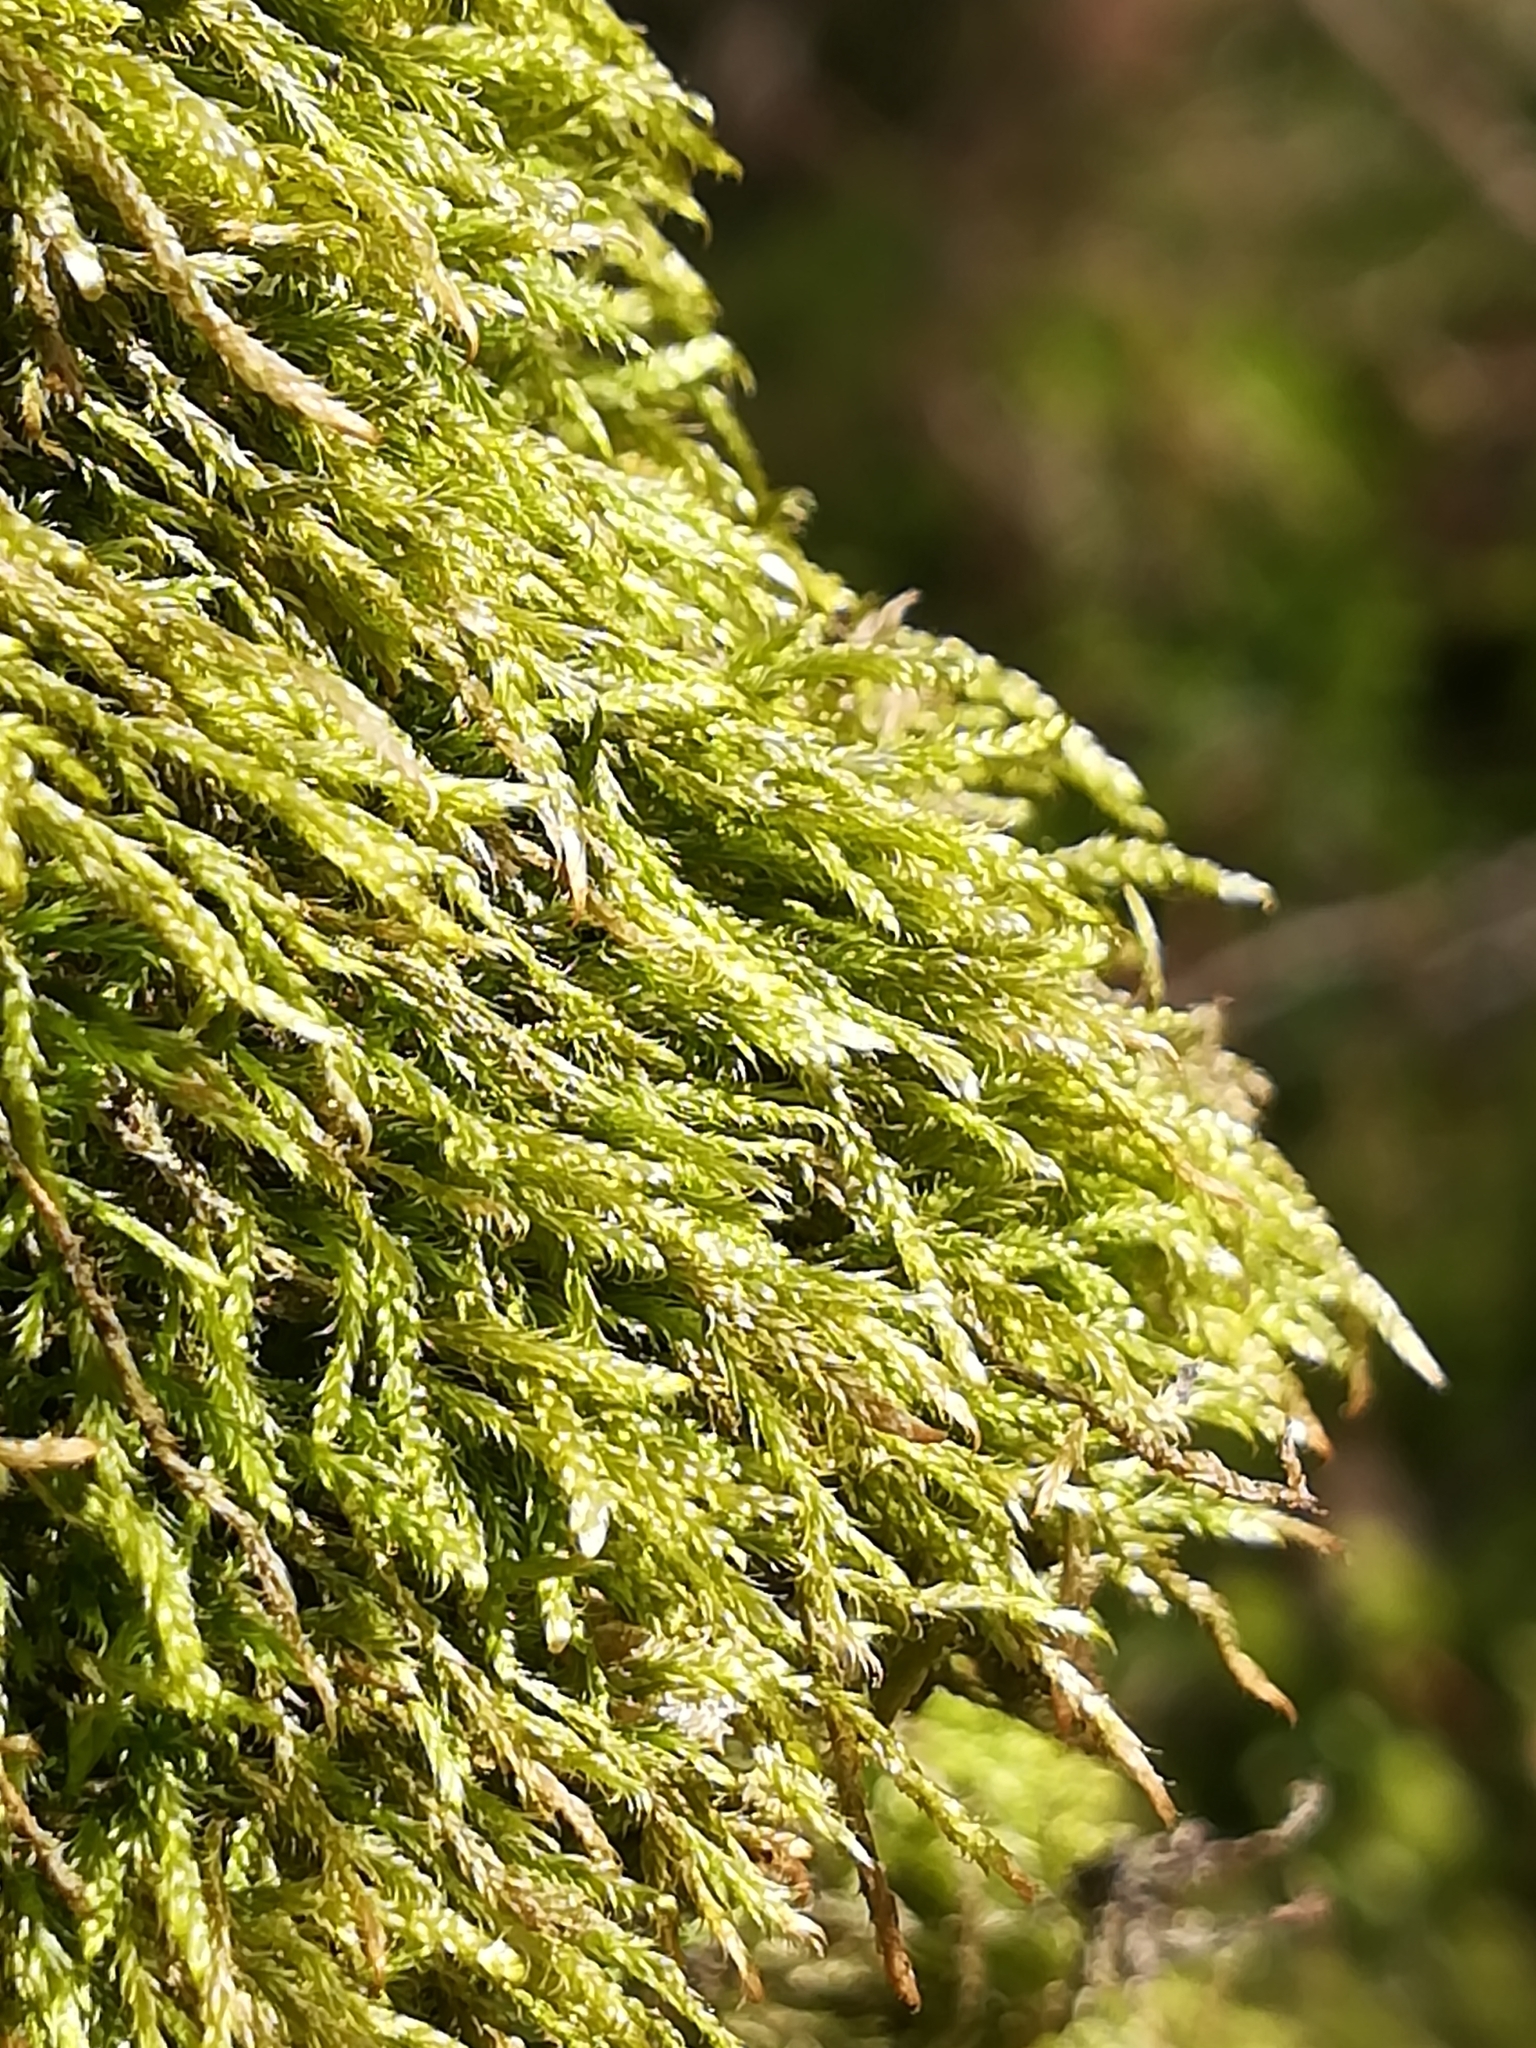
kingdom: Plantae
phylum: Bryophyta
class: Bryopsida
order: Hypnales
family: Hypnaceae
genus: Hypnum
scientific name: Hypnum cupressiforme
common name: Cypress-leaved plait-moss
